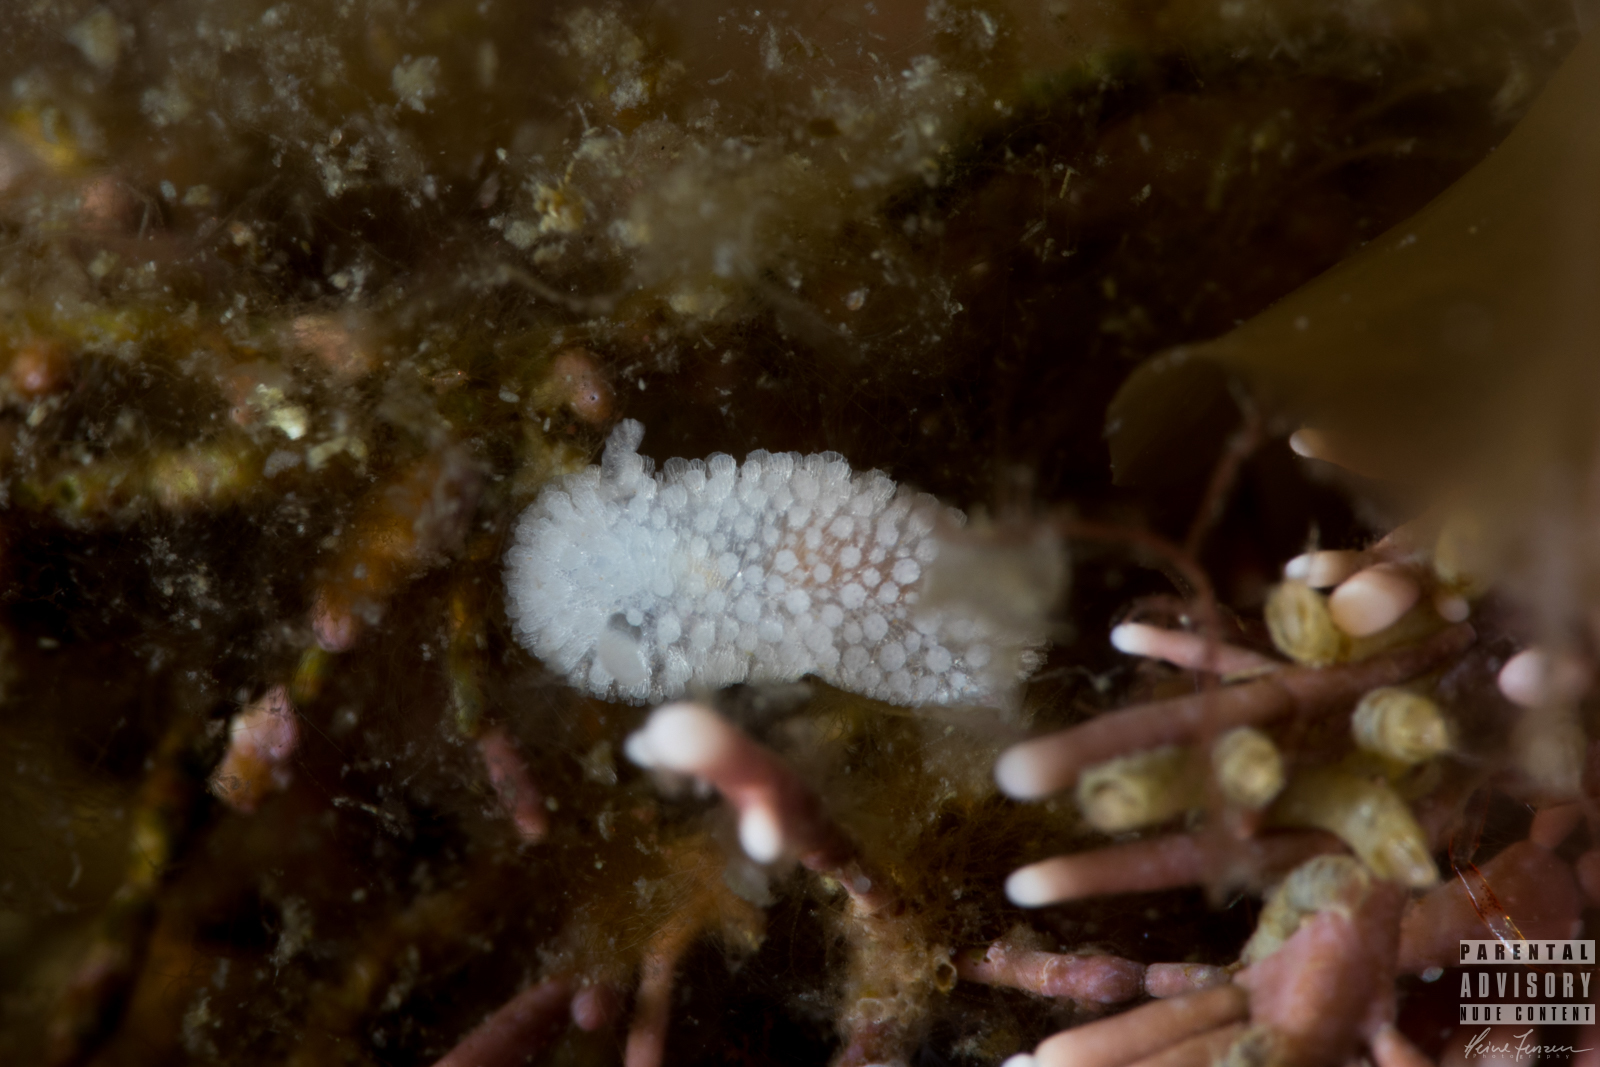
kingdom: Animalia
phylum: Mollusca
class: Gastropoda
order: Nudibranchia
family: Onchidorididae
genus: Onchidoris
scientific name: Onchidoris muricata
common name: Rough doris
